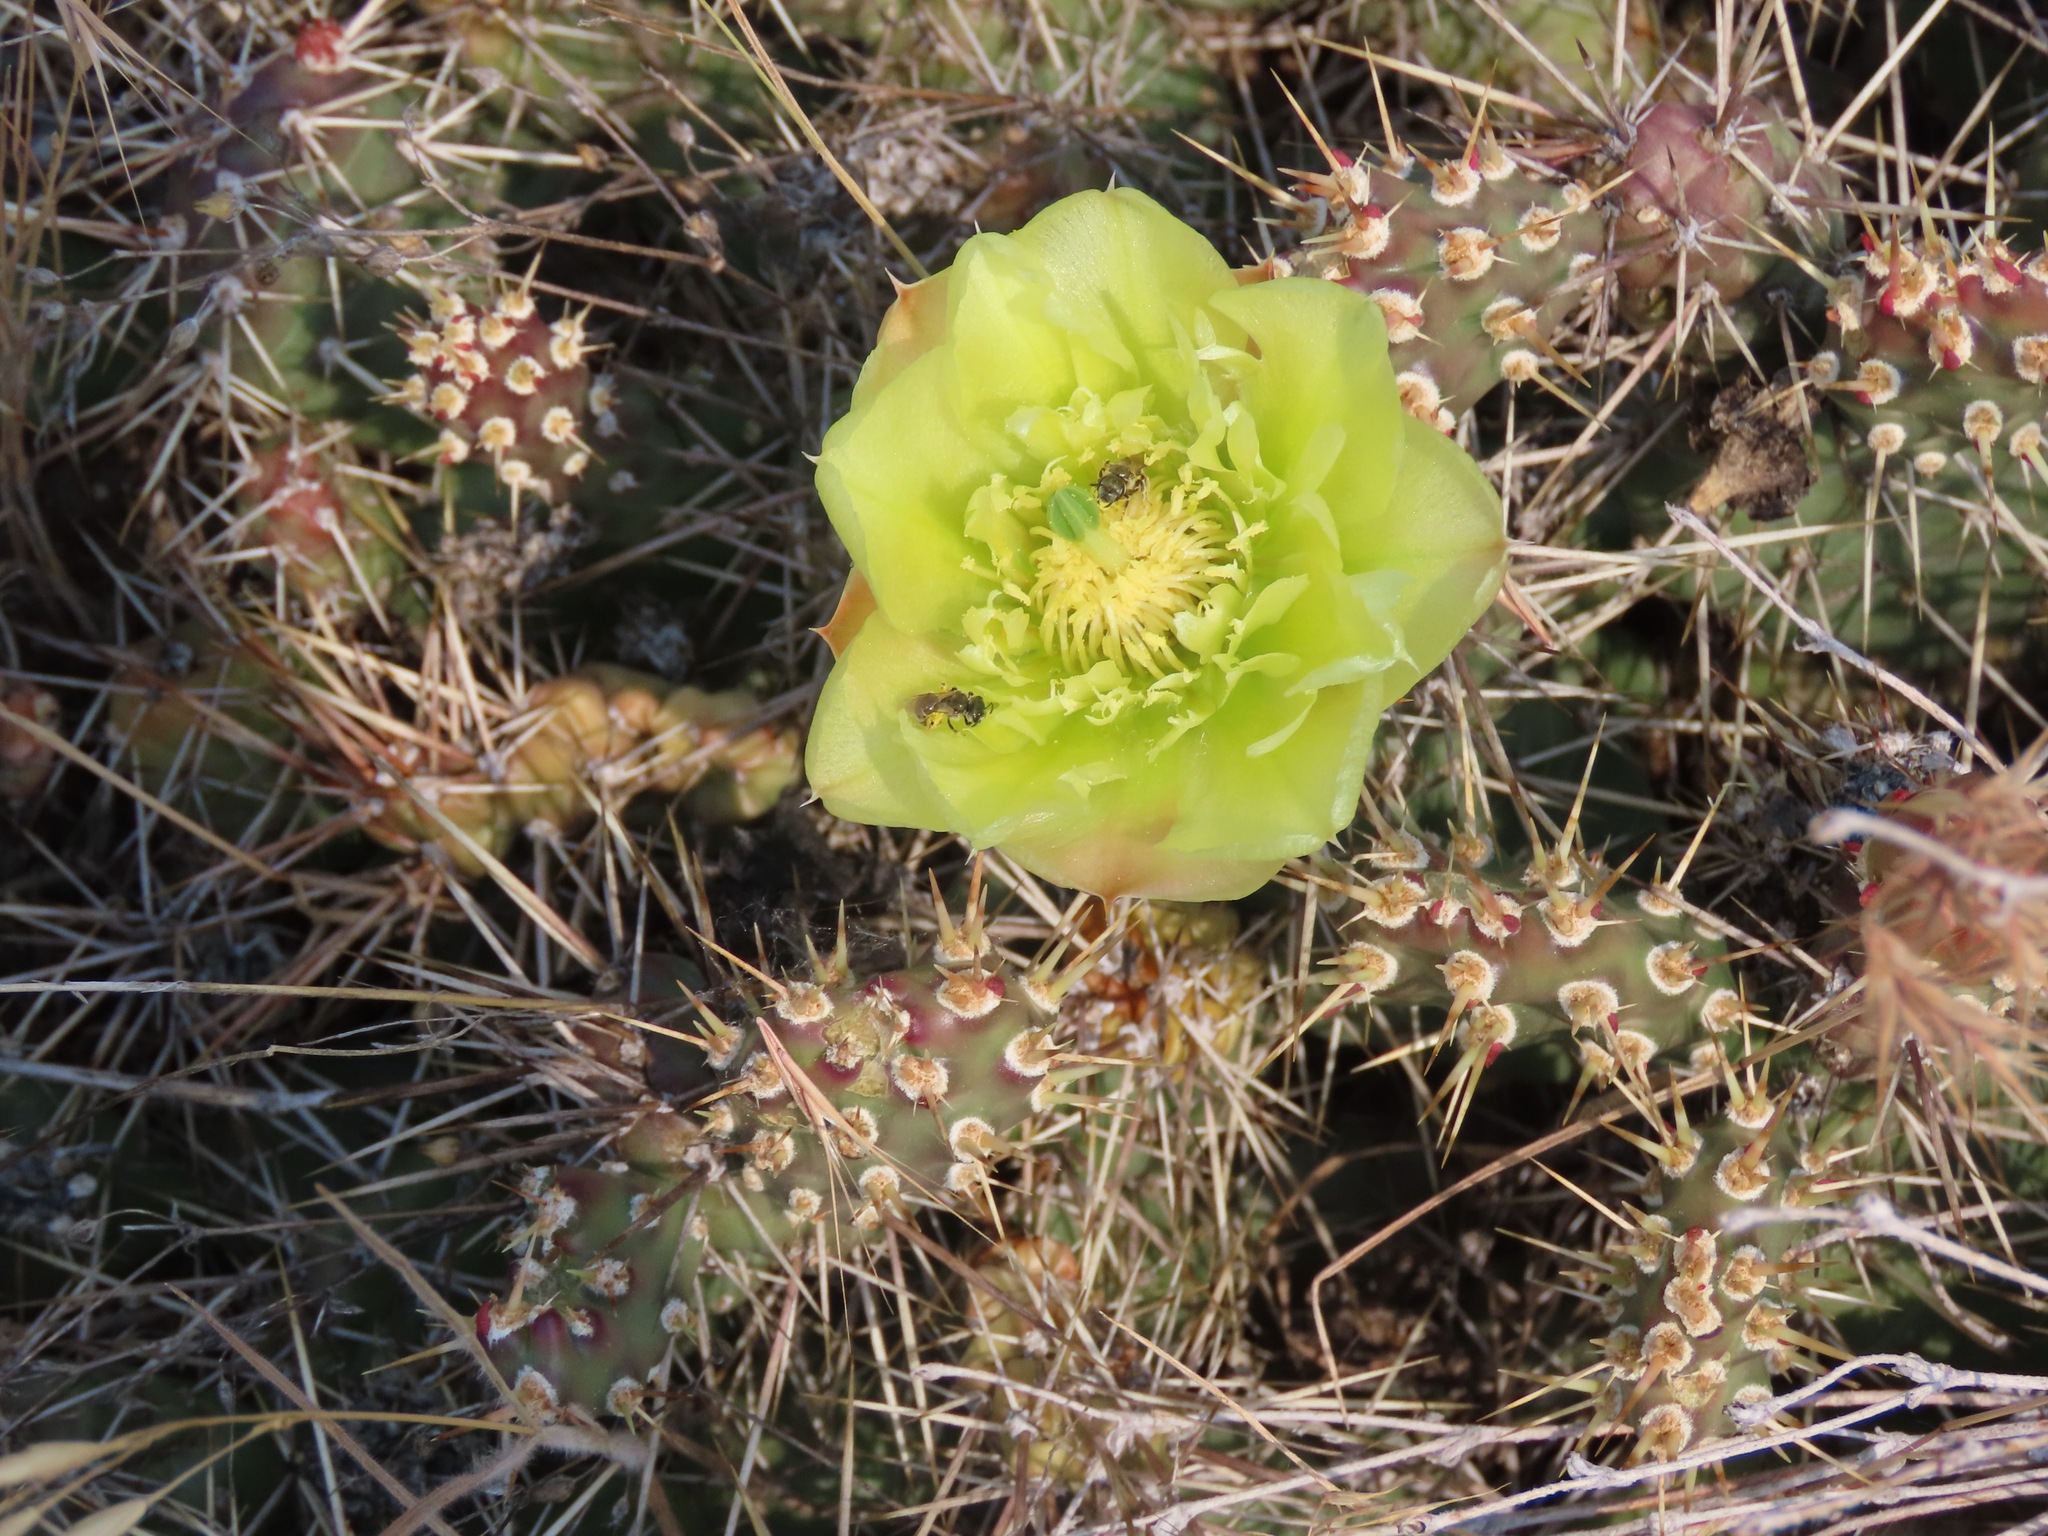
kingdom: Plantae
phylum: Tracheophyta
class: Magnoliopsida
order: Caryophyllales
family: Cactaceae
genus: Opuntia
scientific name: Opuntia fragilis
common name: Brittle cactus
